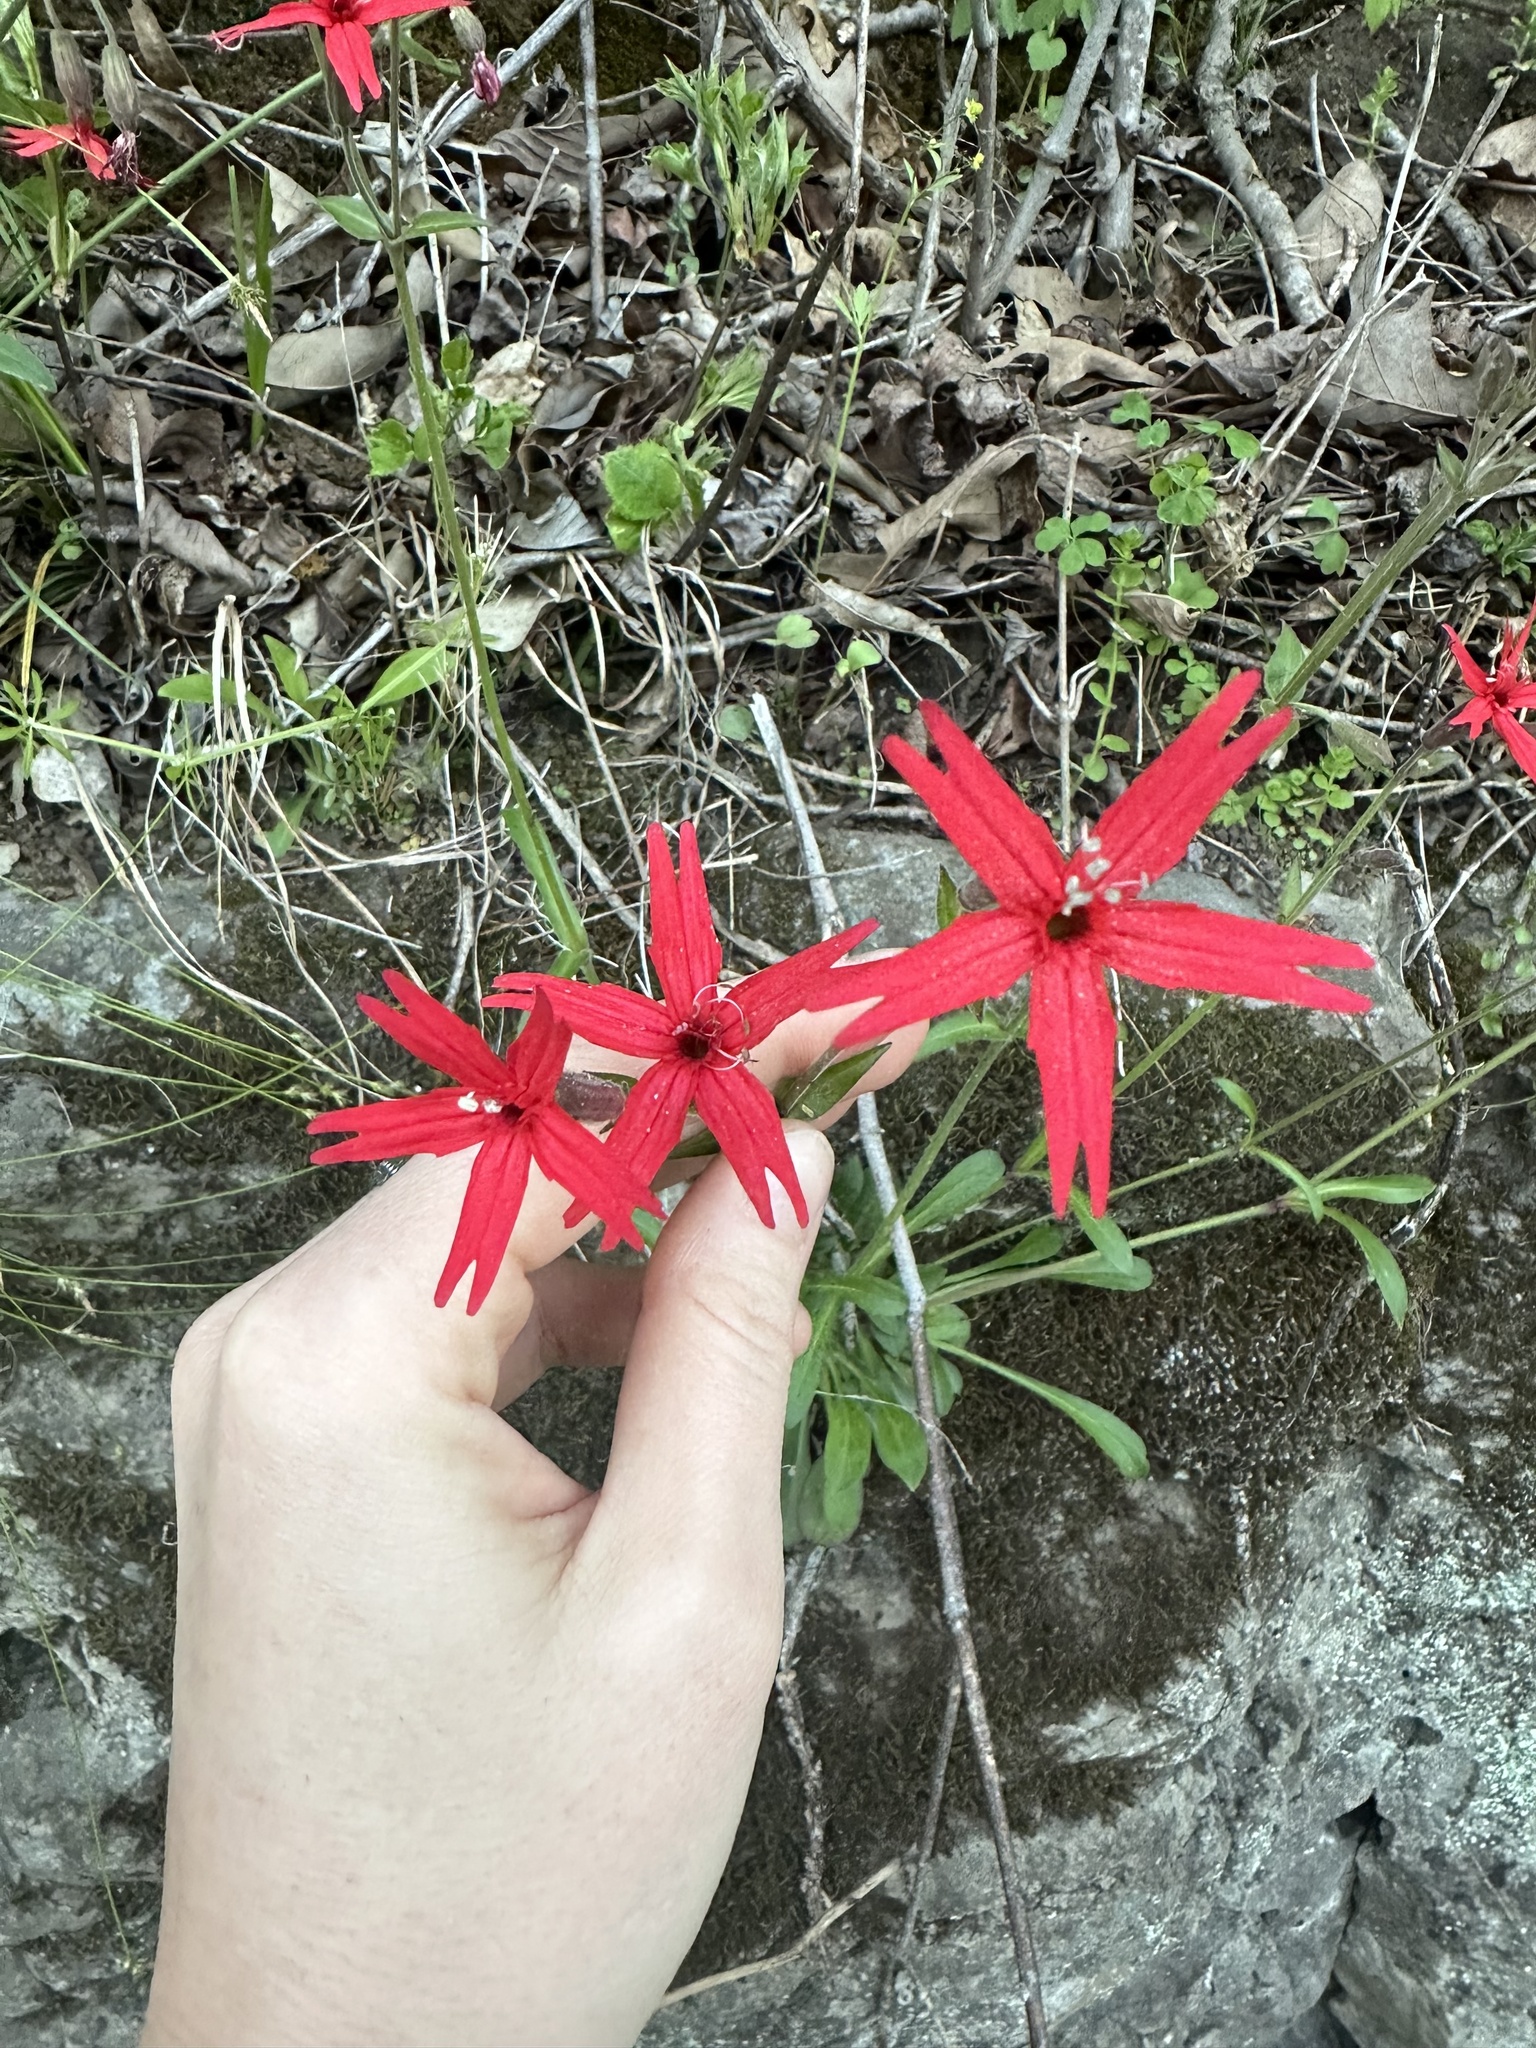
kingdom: Plantae
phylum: Tracheophyta
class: Magnoliopsida
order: Caryophyllales
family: Caryophyllaceae
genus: Silene
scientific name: Silene virginica
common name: Fire-pink
